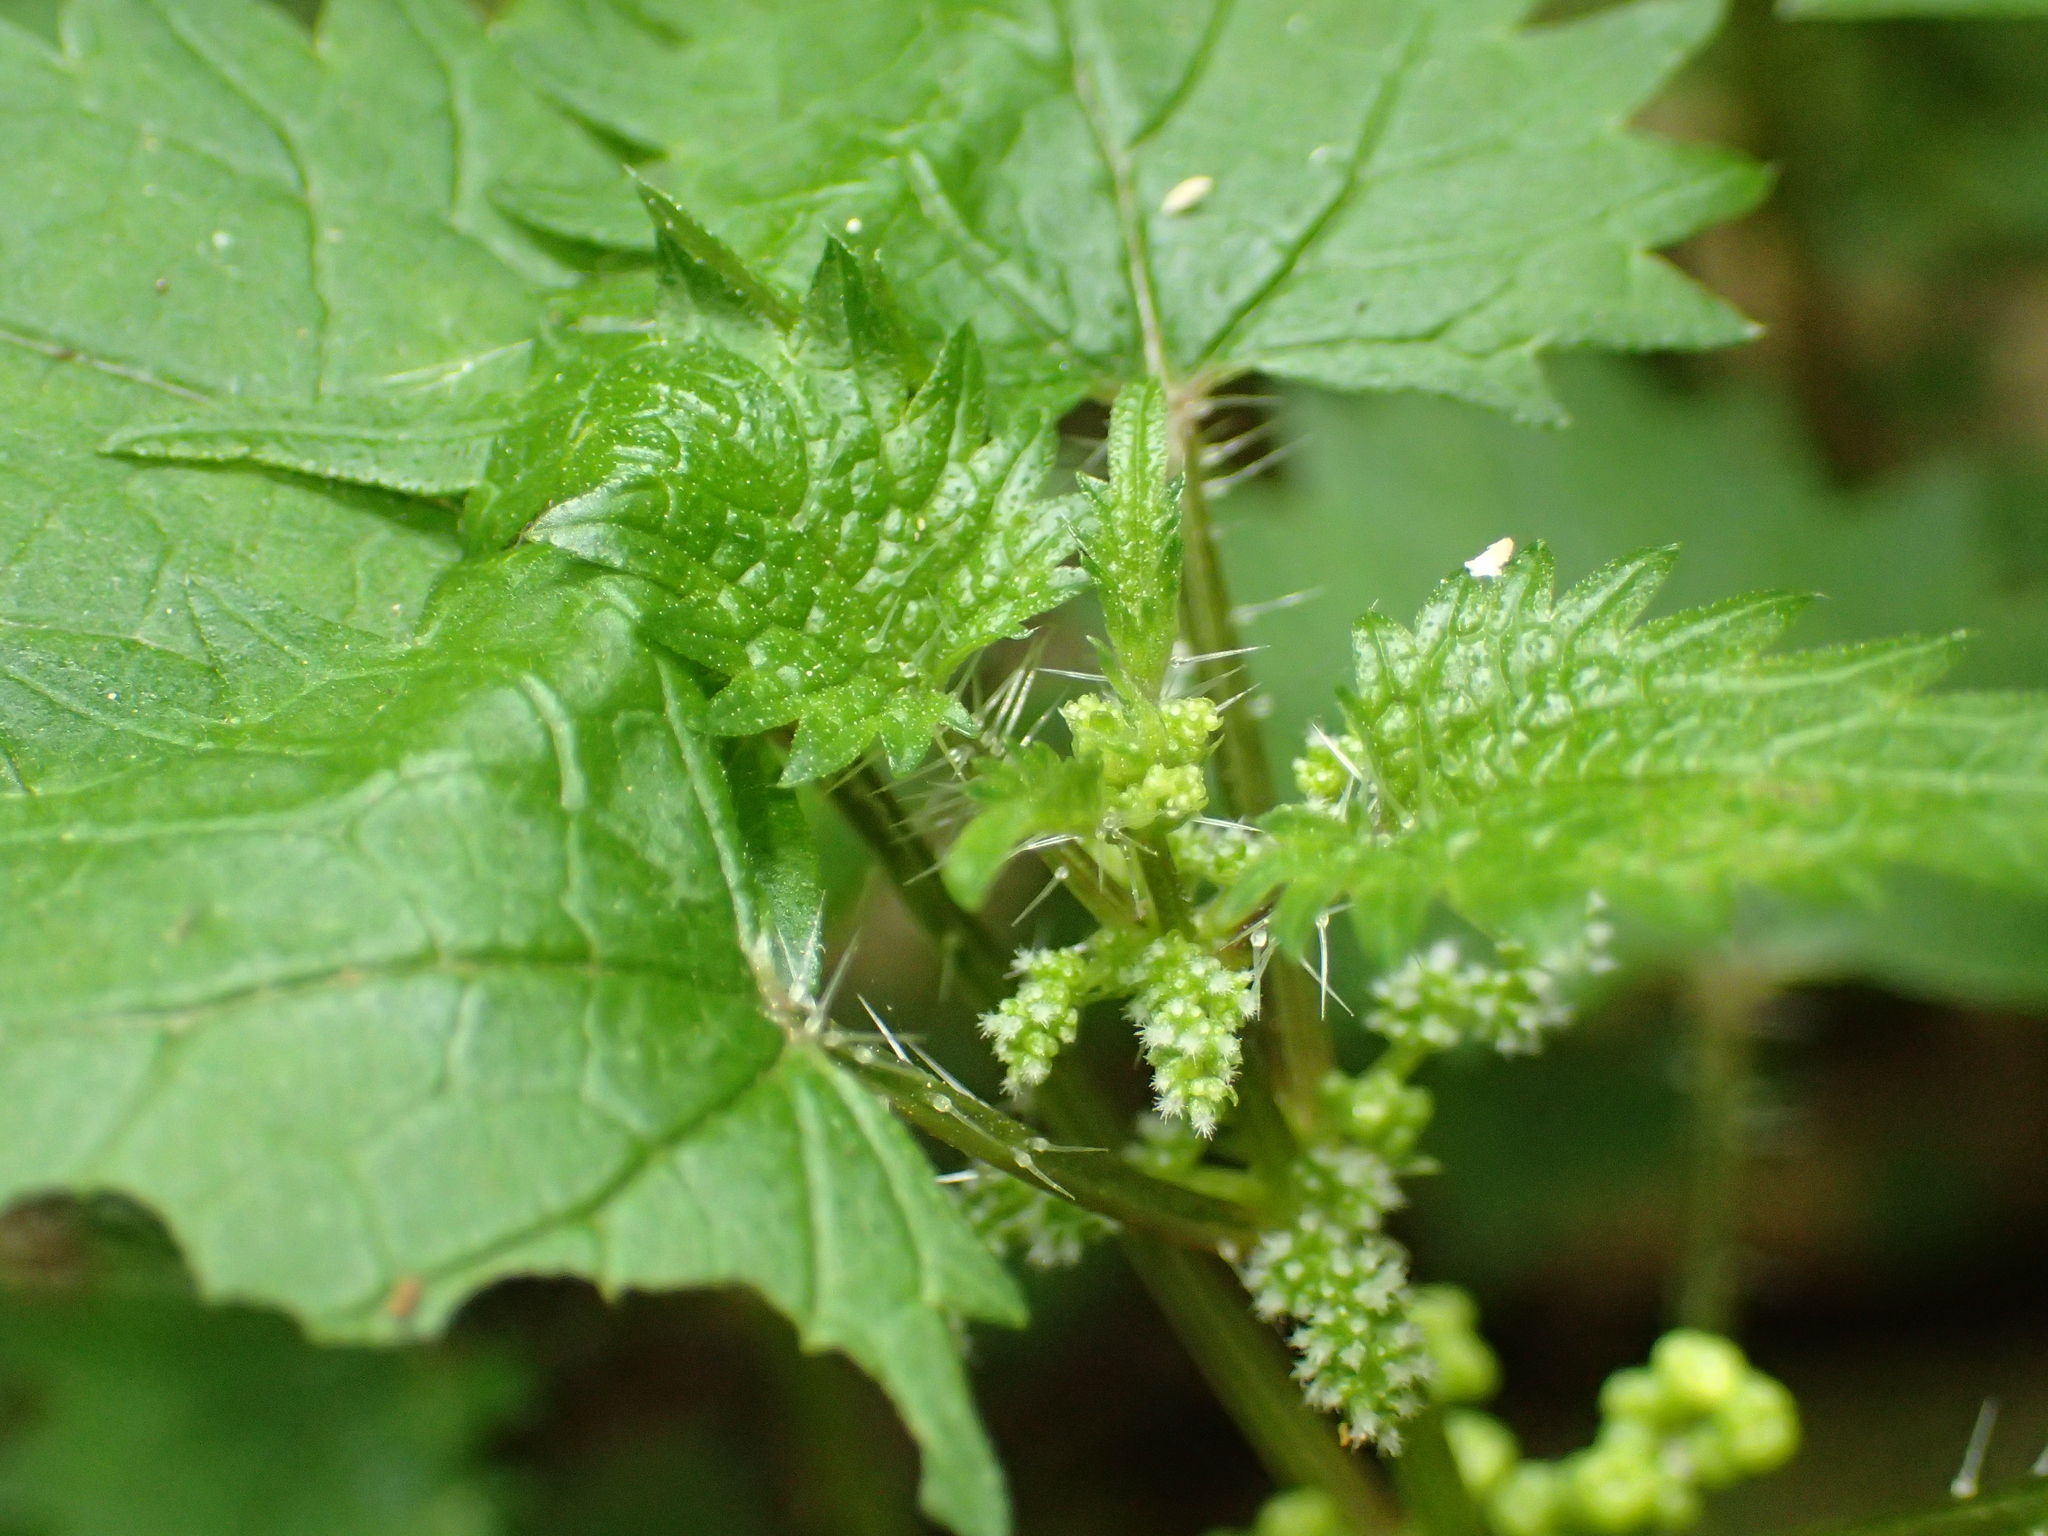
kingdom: Plantae
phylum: Tracheophyta
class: Magnoliopsida
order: Rosales
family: Urticaceae
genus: Urtica
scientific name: Urtica sykesii
